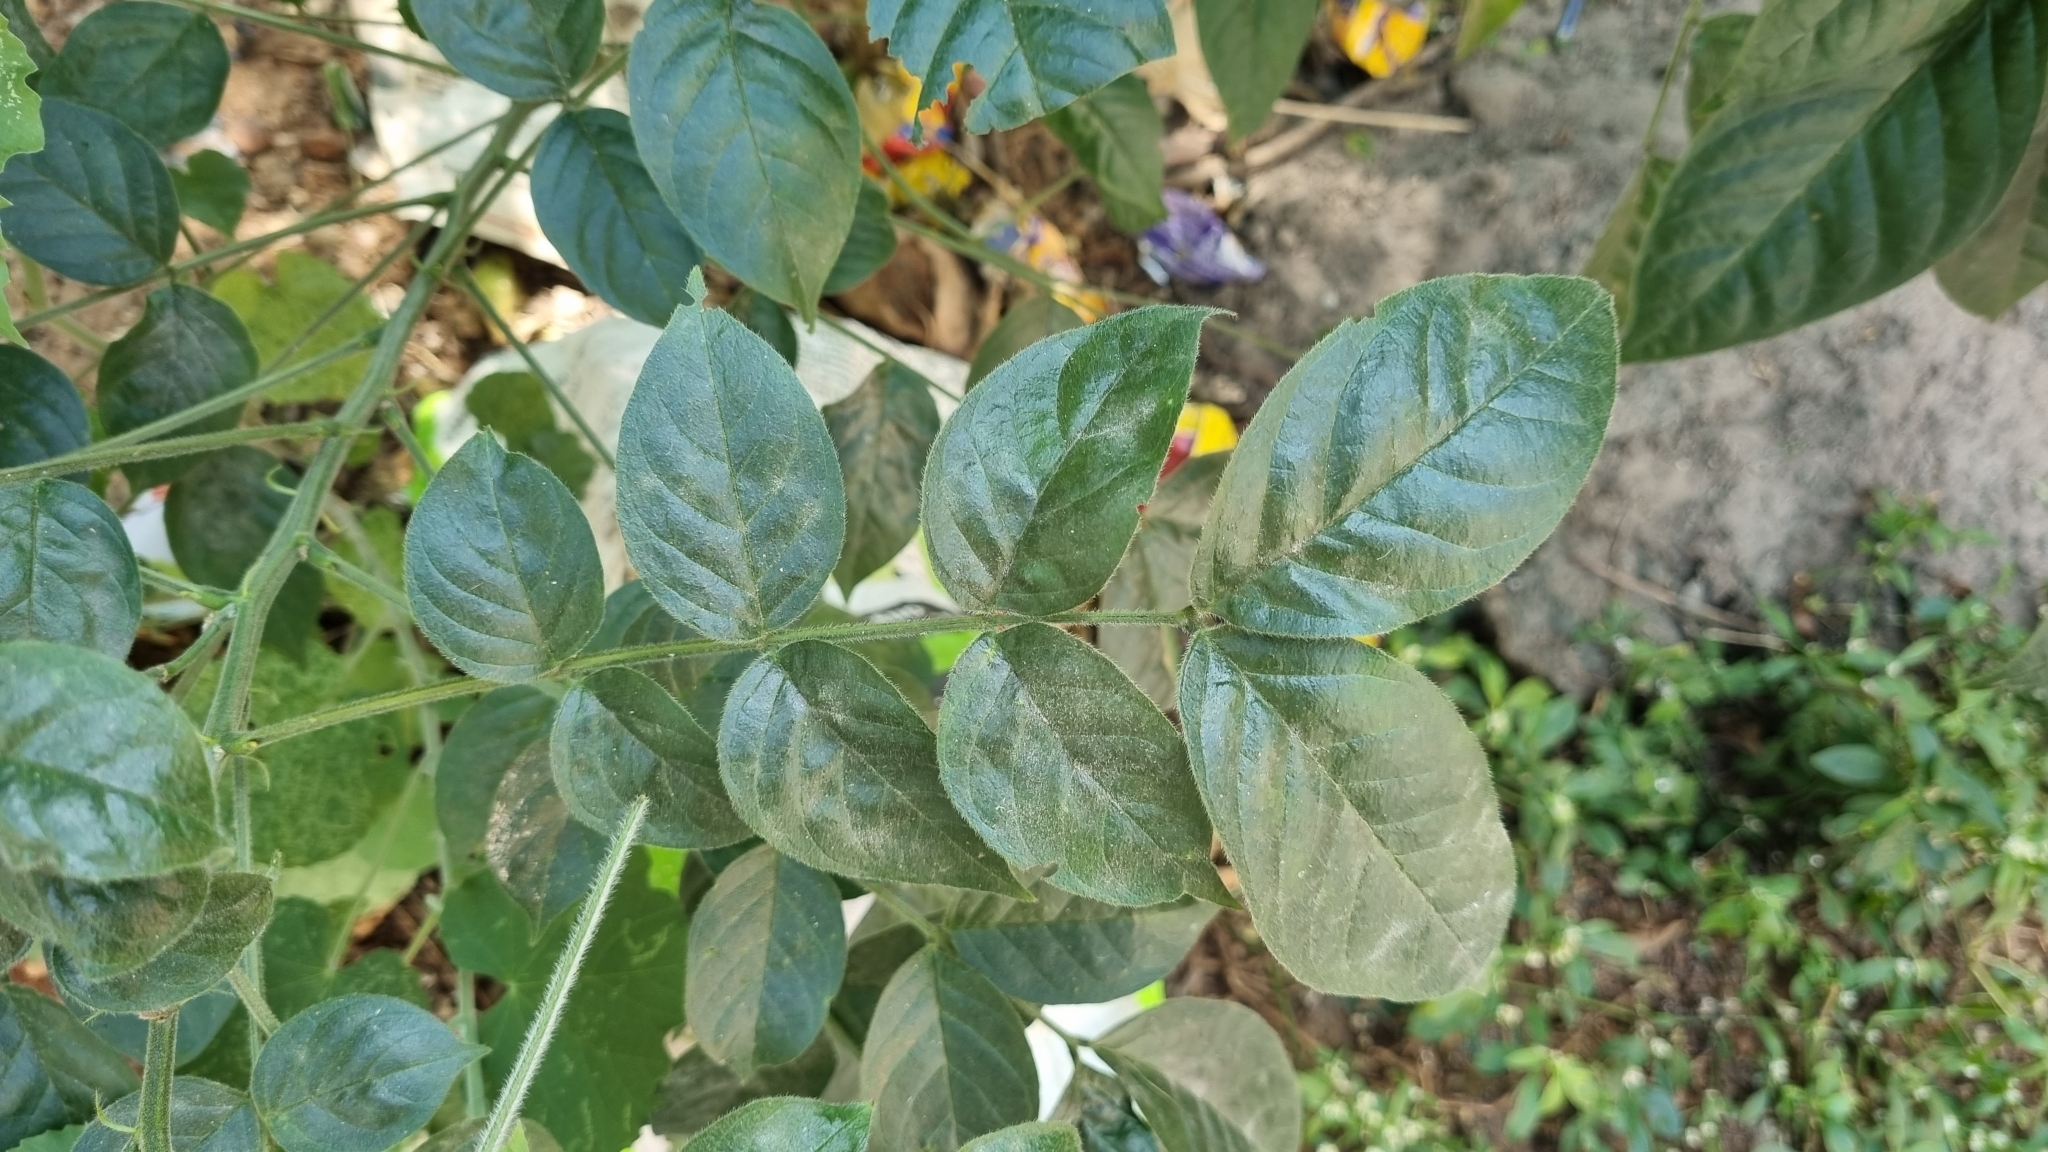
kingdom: Plantae
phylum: Tracheophyta
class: Magnoliopsida
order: Fabales
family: Fabaceae
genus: Senna
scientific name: Senna hirsuta
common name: Woolly senna
